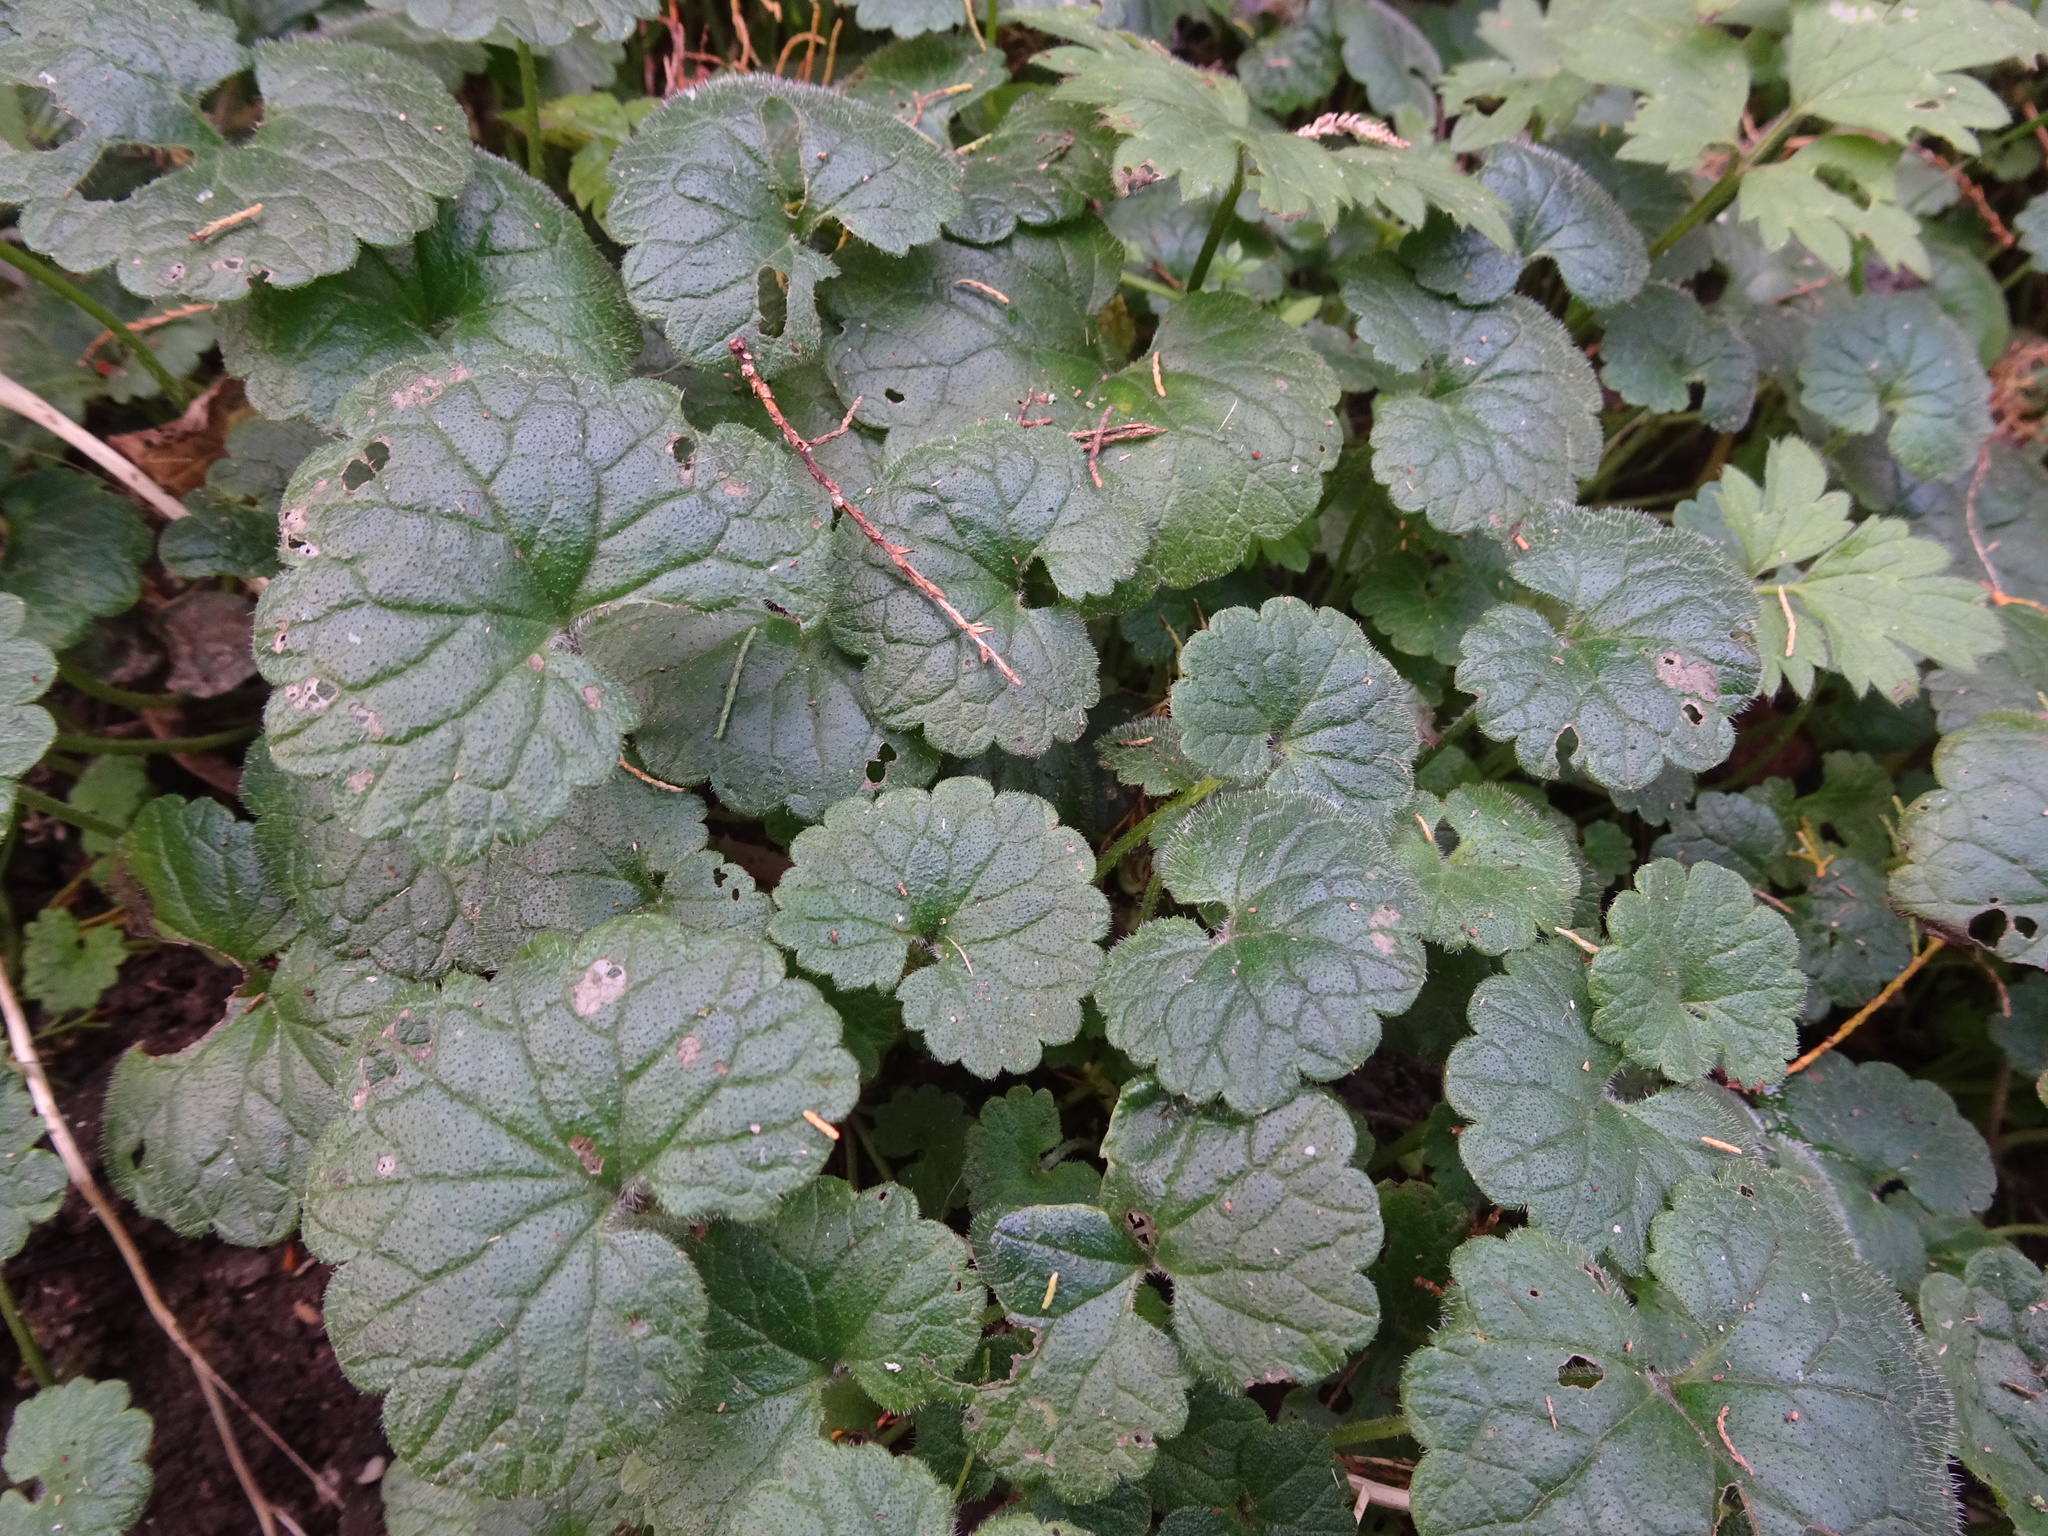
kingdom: Plantae
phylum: Tracheophyta
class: Magnoliopsida
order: Lamiales
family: Lamiaceae
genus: Glechoma
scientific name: Glechoma hederacea
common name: Ground ivy
